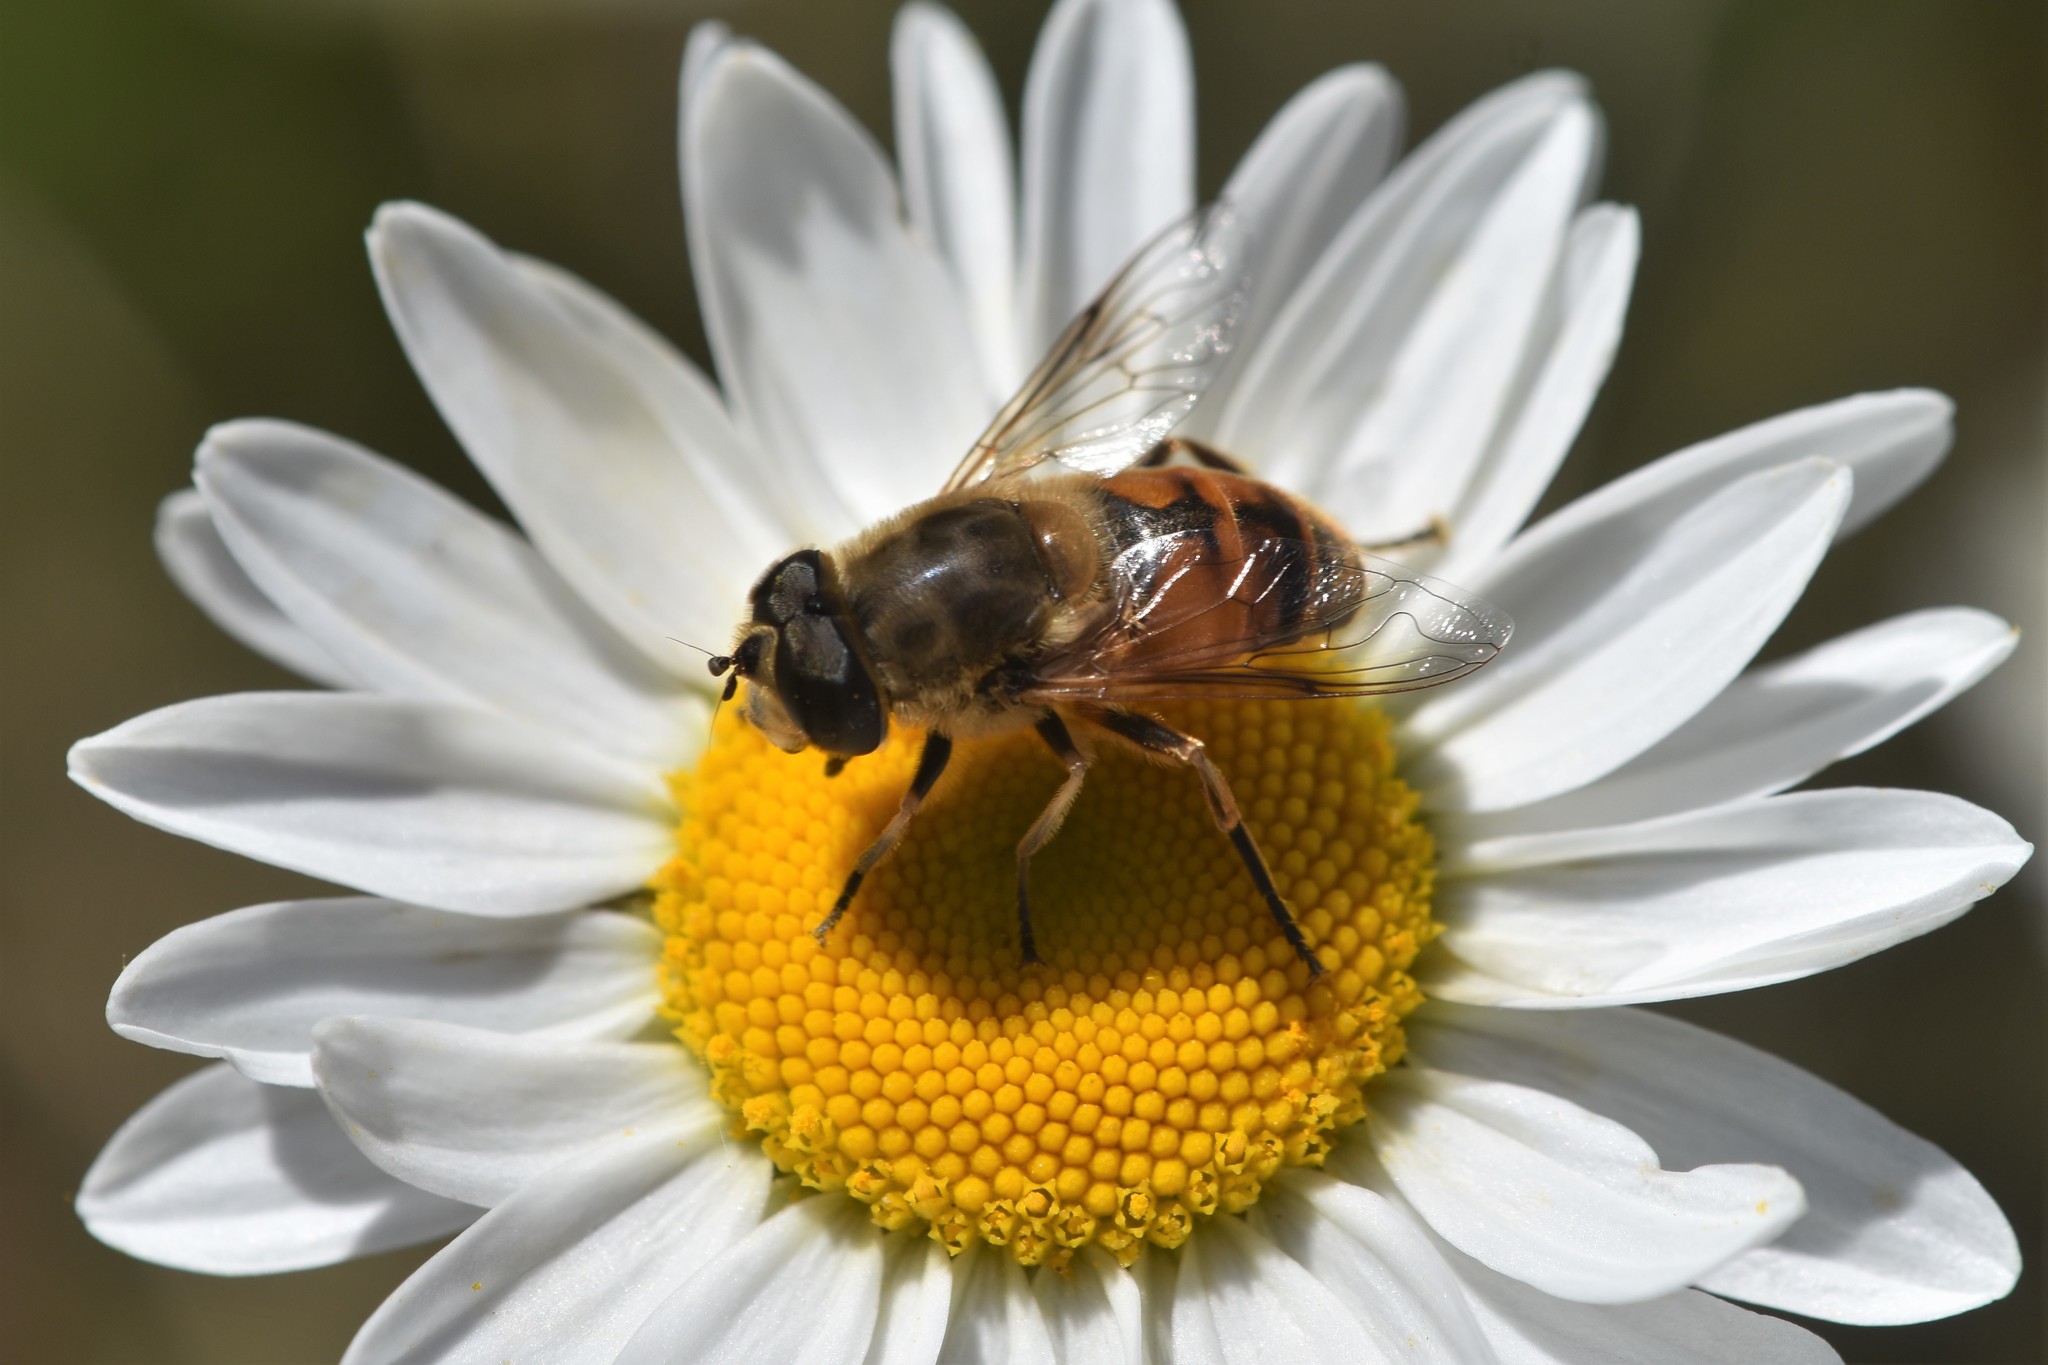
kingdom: Animalia
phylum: Arthropoda
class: Insecta
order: Diptera
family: Syrphidae
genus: Eristalis
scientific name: Eristalis tenax
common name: Drone fly
